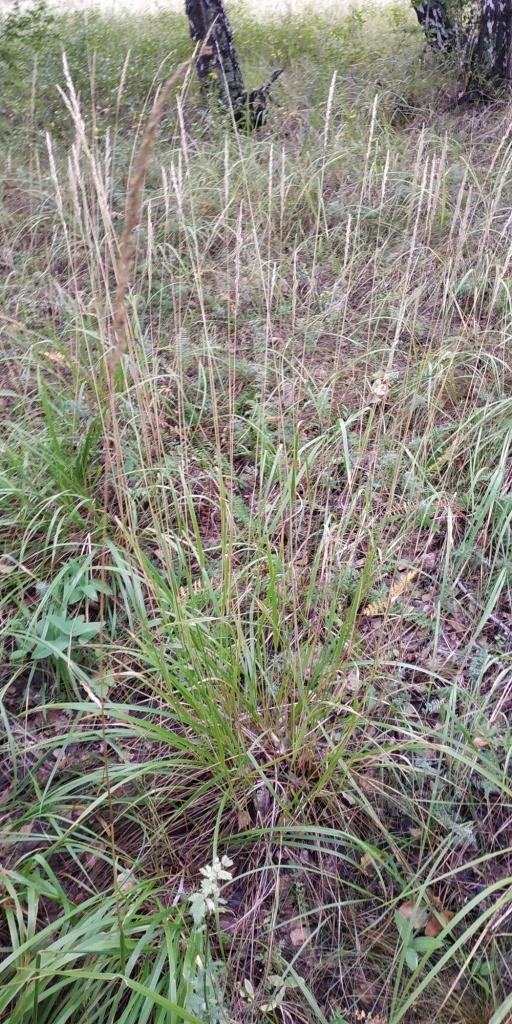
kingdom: Plantae
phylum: Tracheophyta
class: Liliopsida
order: Poales
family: Poaceae
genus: Calamagrostis
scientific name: Calamagrostis arundinacea
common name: Metskastik
